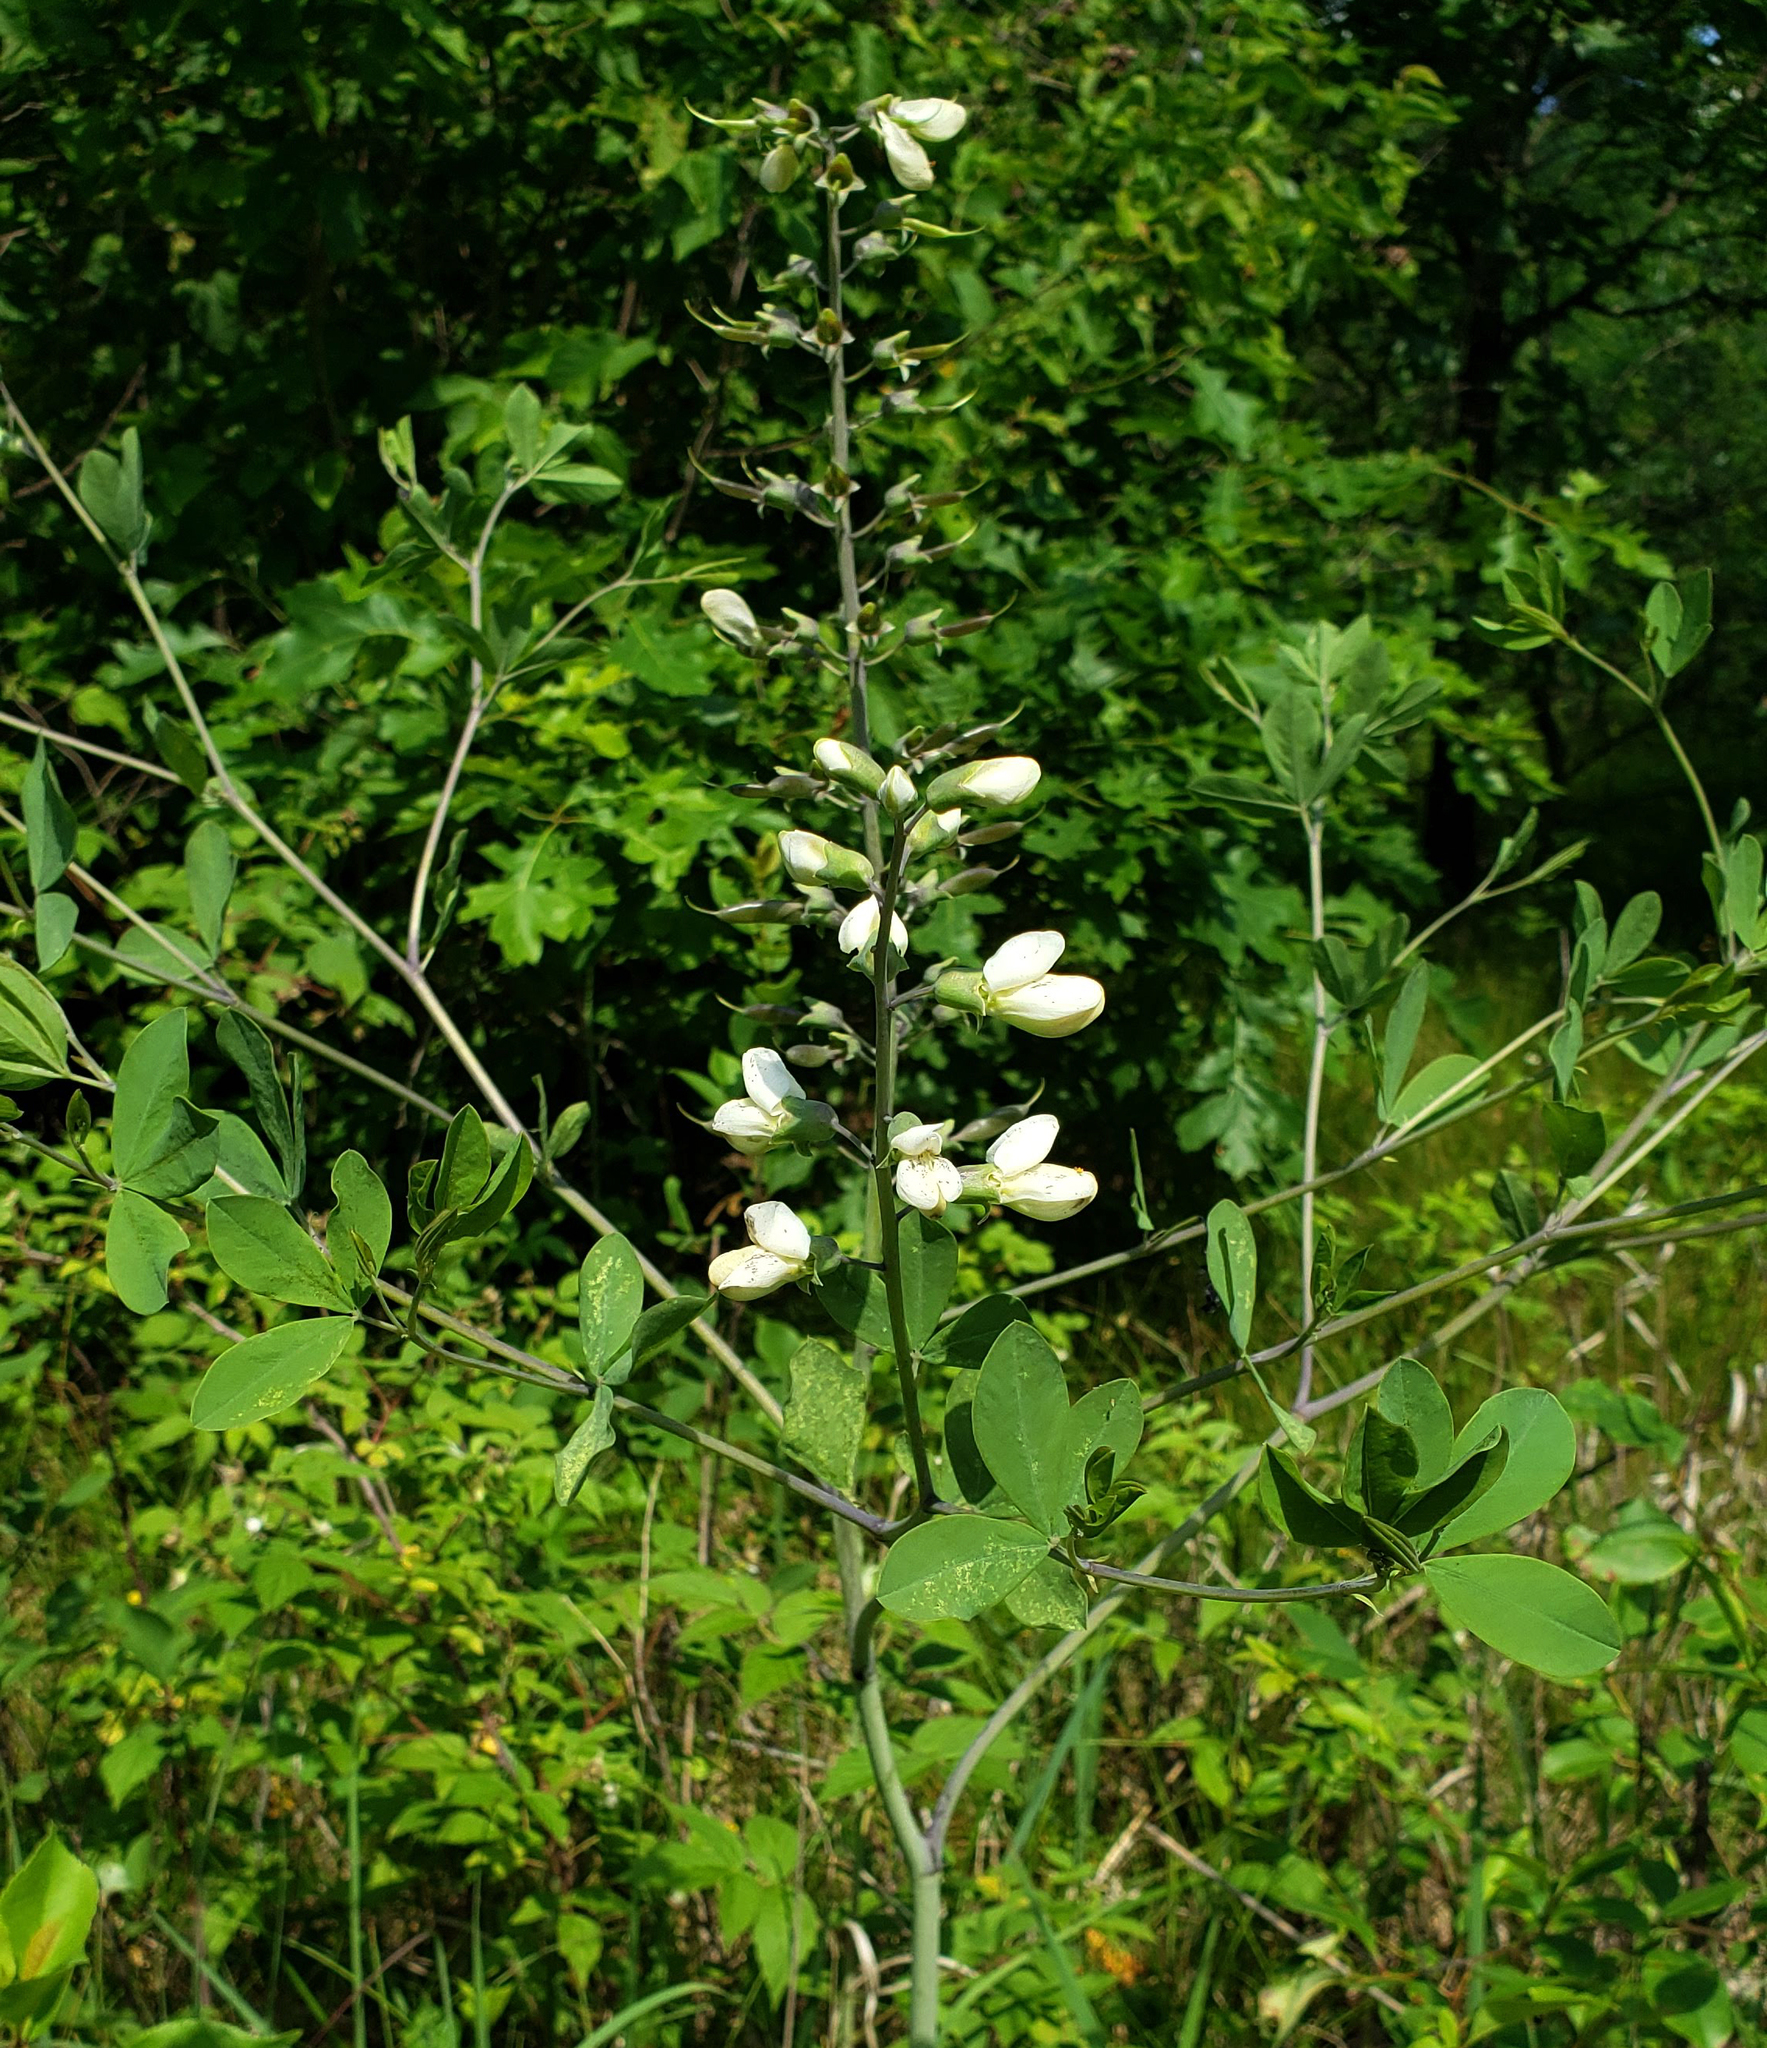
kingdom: Plantae
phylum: Tracheophyta
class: Magnoliopsida
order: Fabales
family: Fabaceae
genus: Baptisia
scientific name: Baptisia alba
